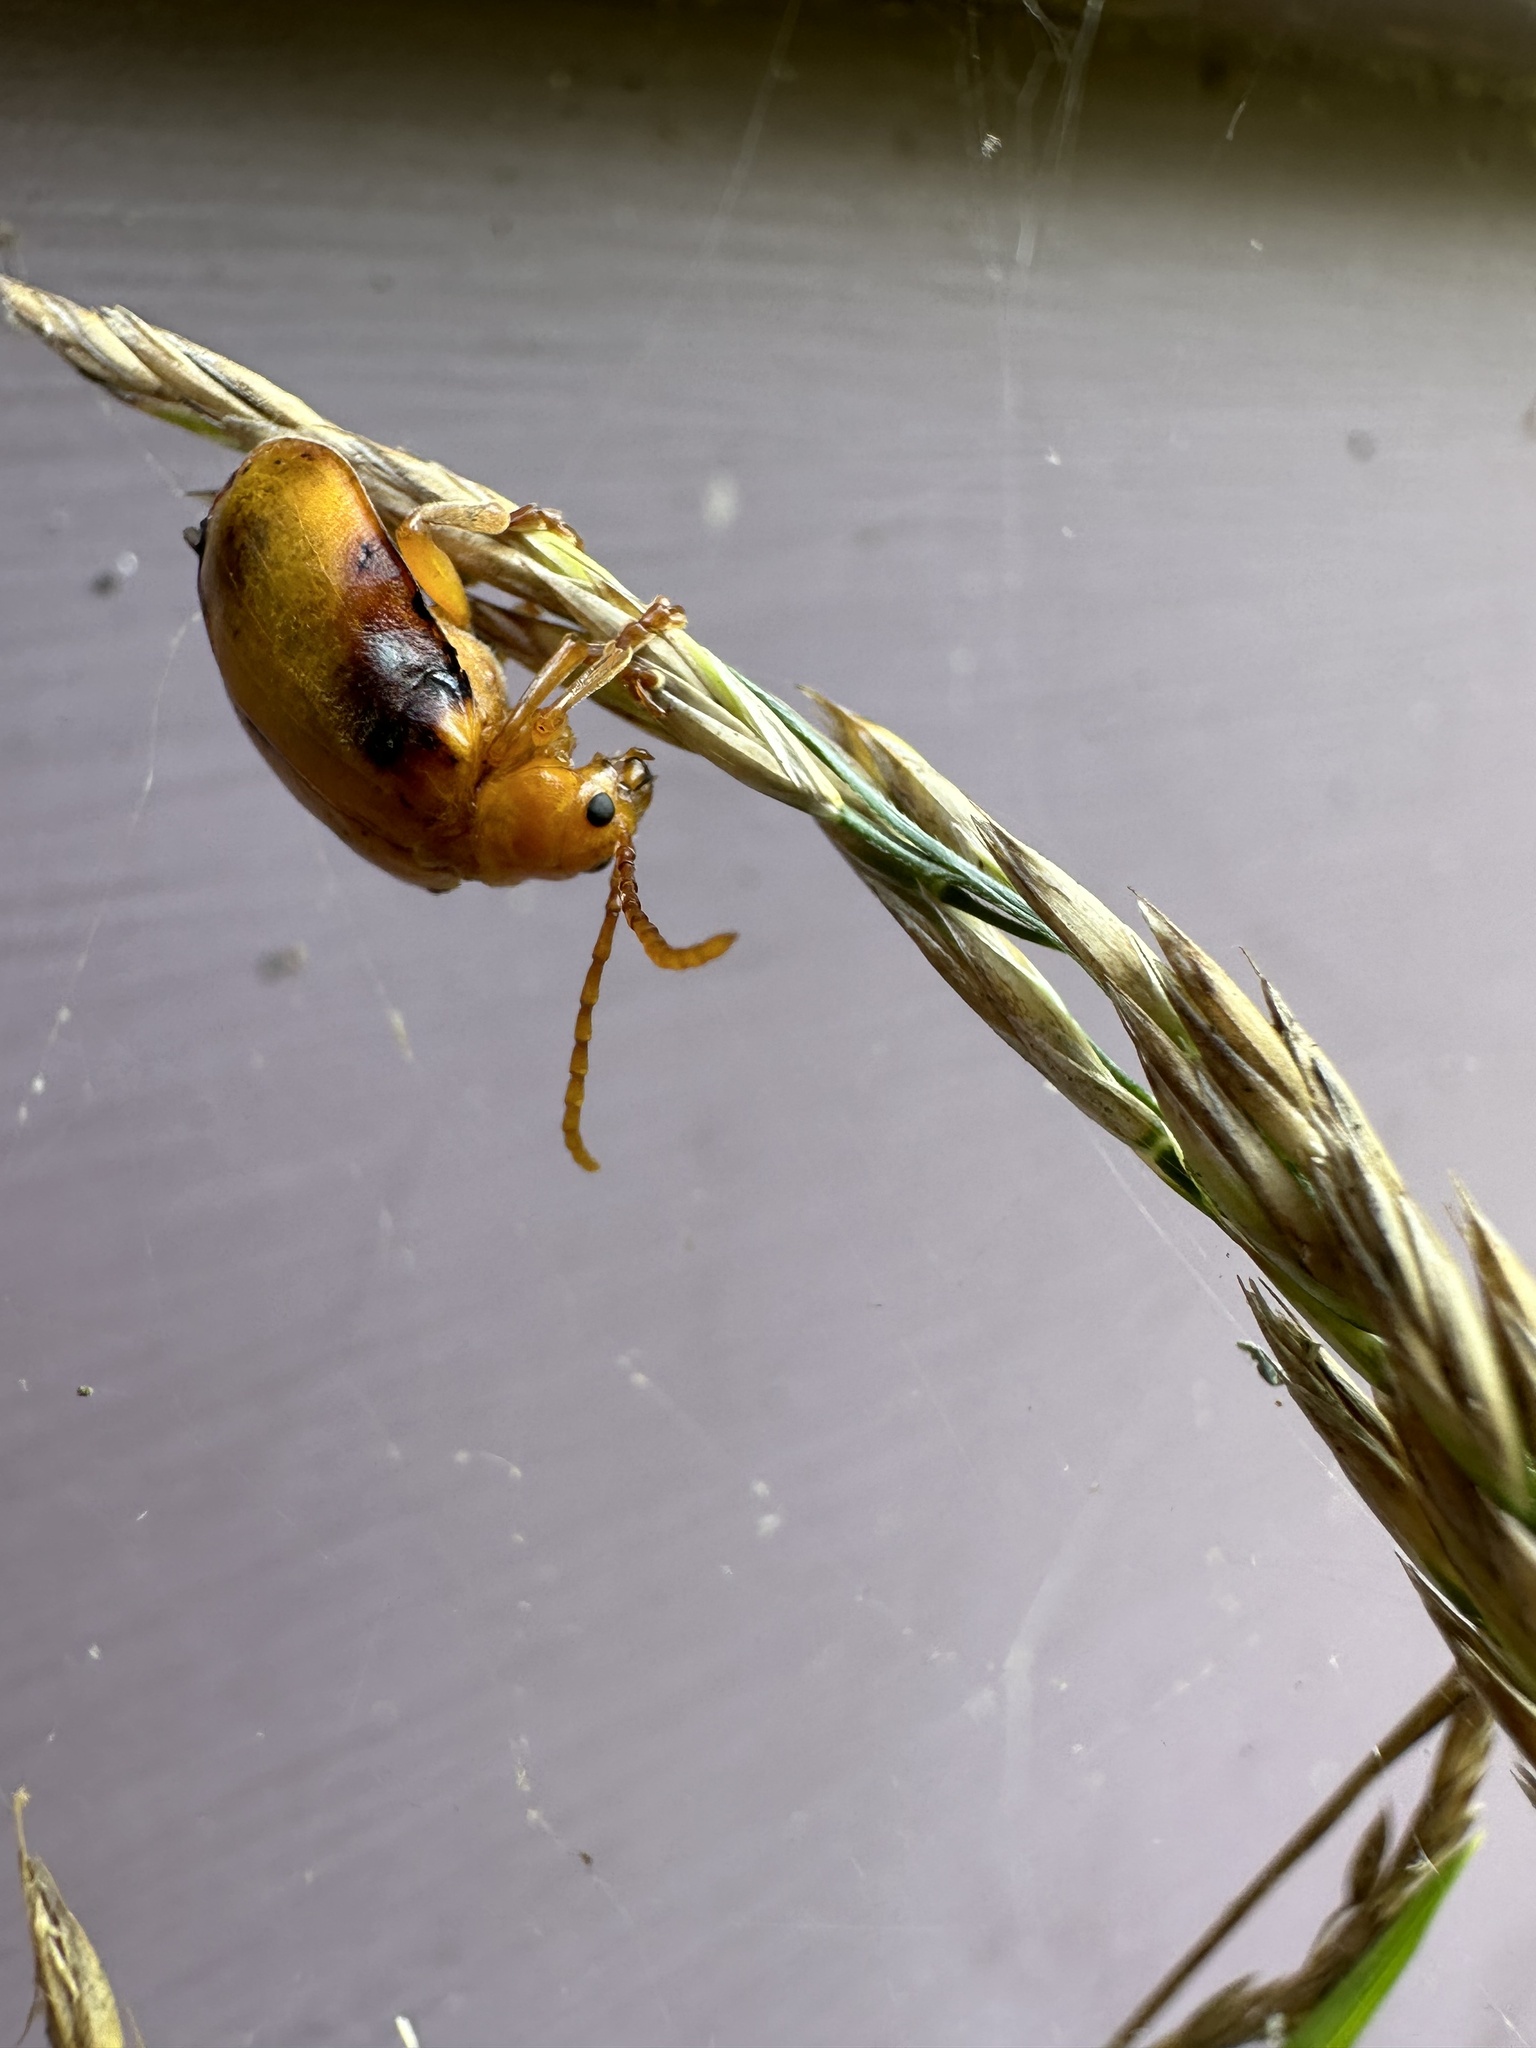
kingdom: Animalia
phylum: Arthropoda
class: Insecta
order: Coleoptera
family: Chrysomelidae
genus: Monocesta
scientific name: Monocesta coryli
